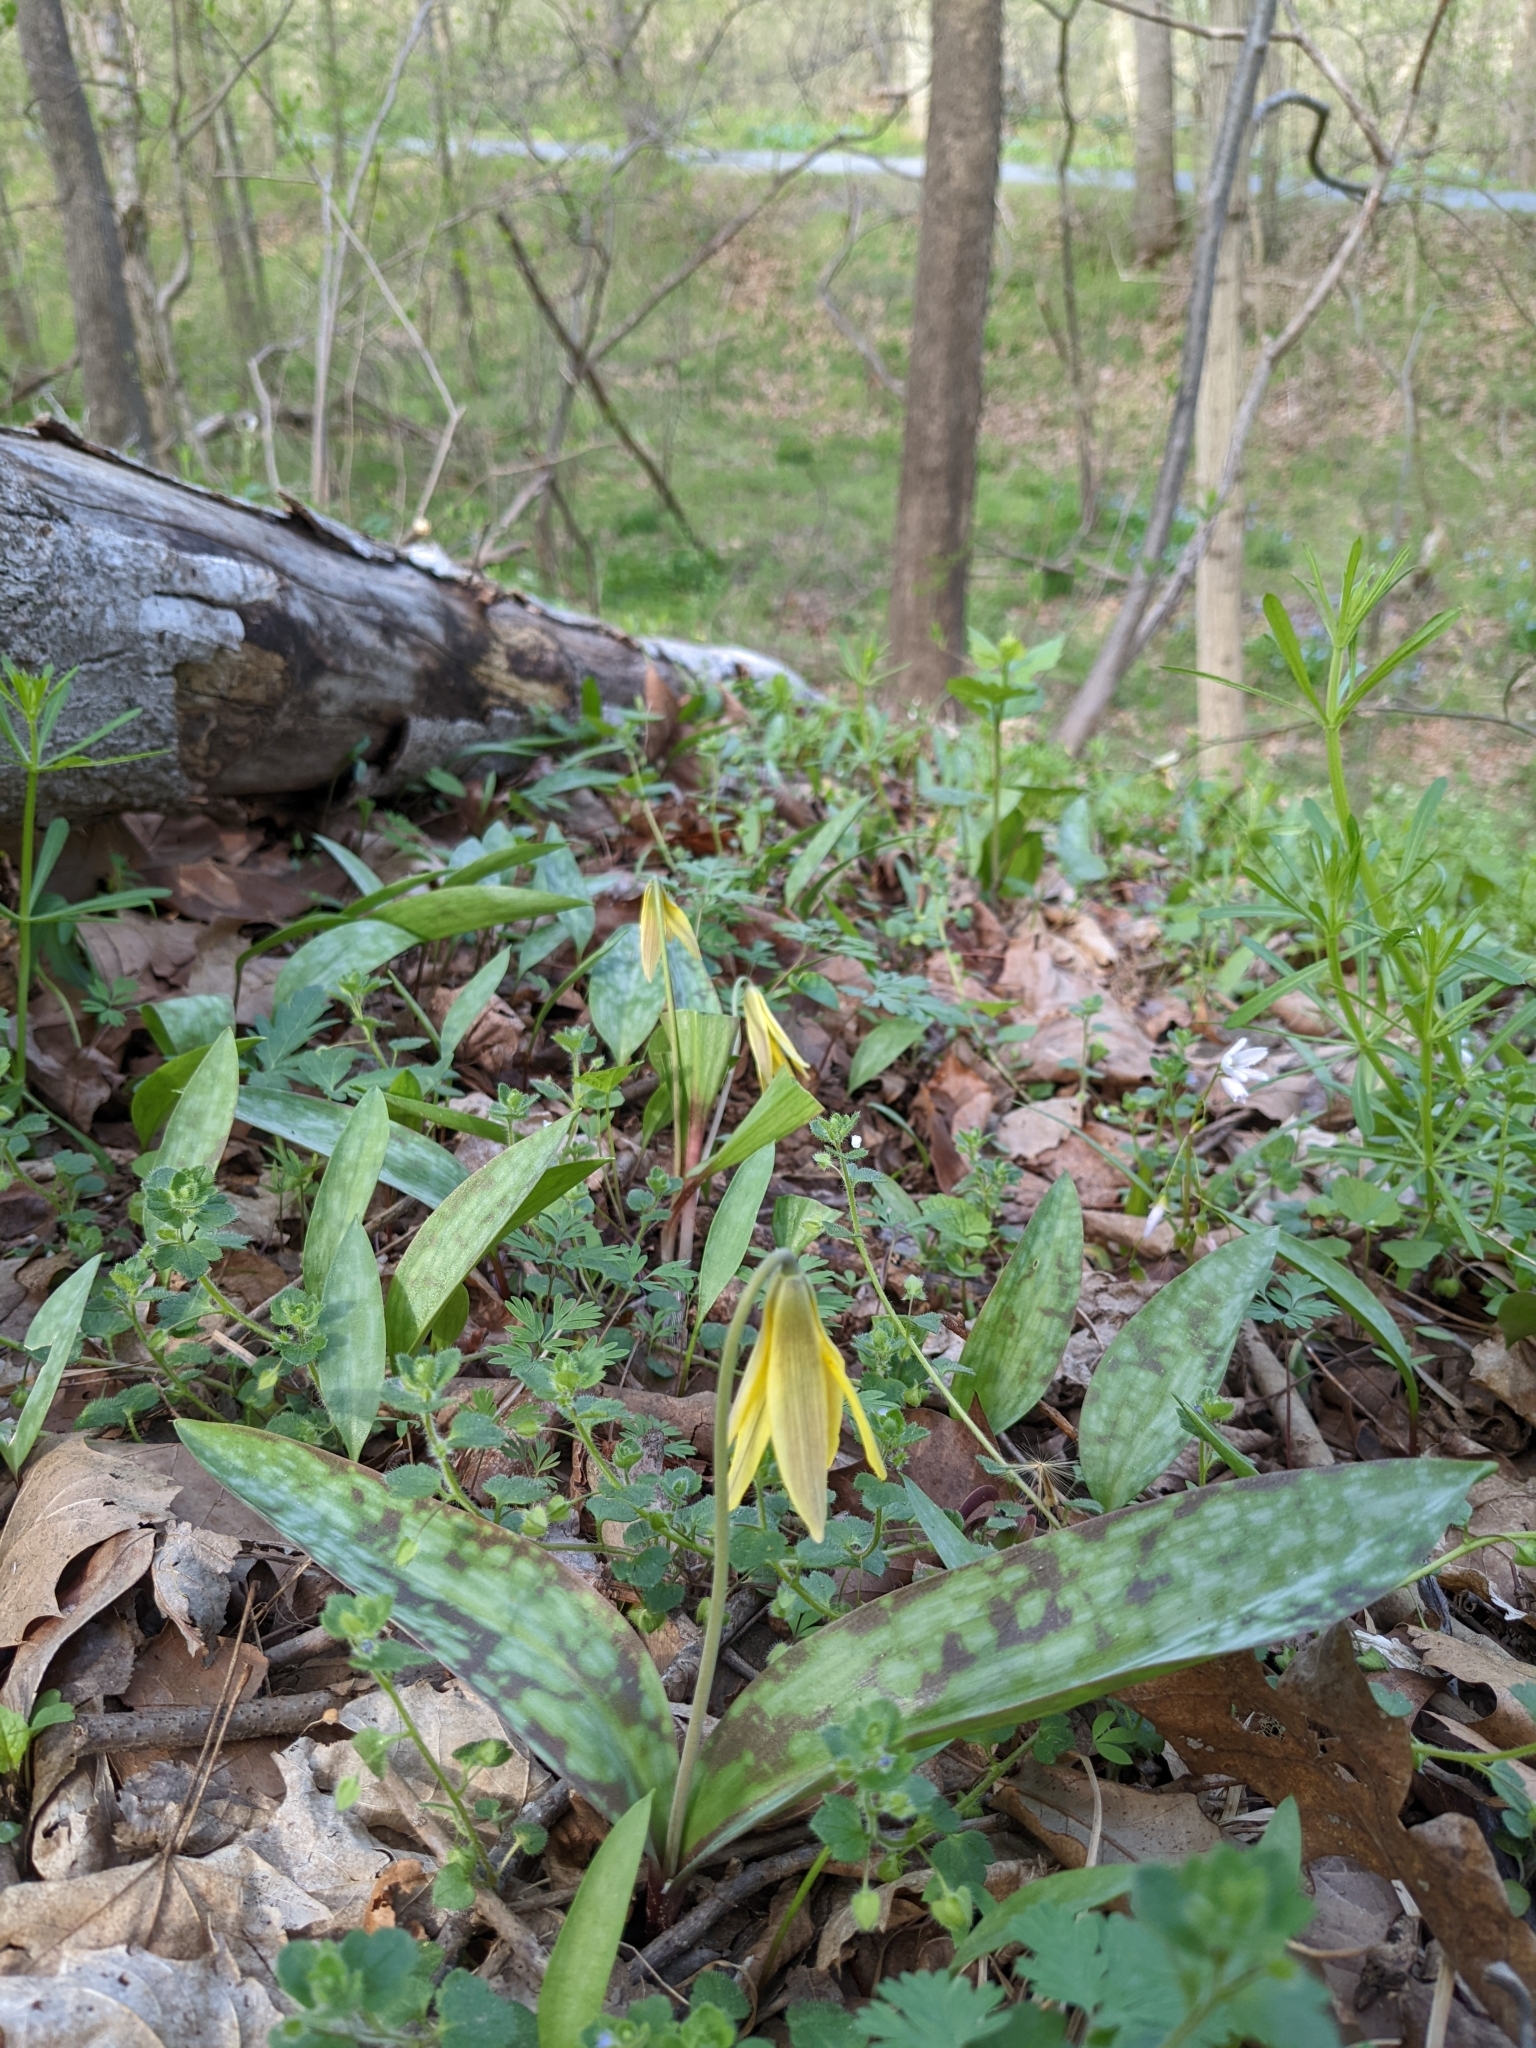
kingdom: Plantae
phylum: Tracheophyta
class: Liliopsida
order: Liliales
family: Liliaceae
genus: Erythronium
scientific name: Erythronium americanum
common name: Yellow adder's-tongue
